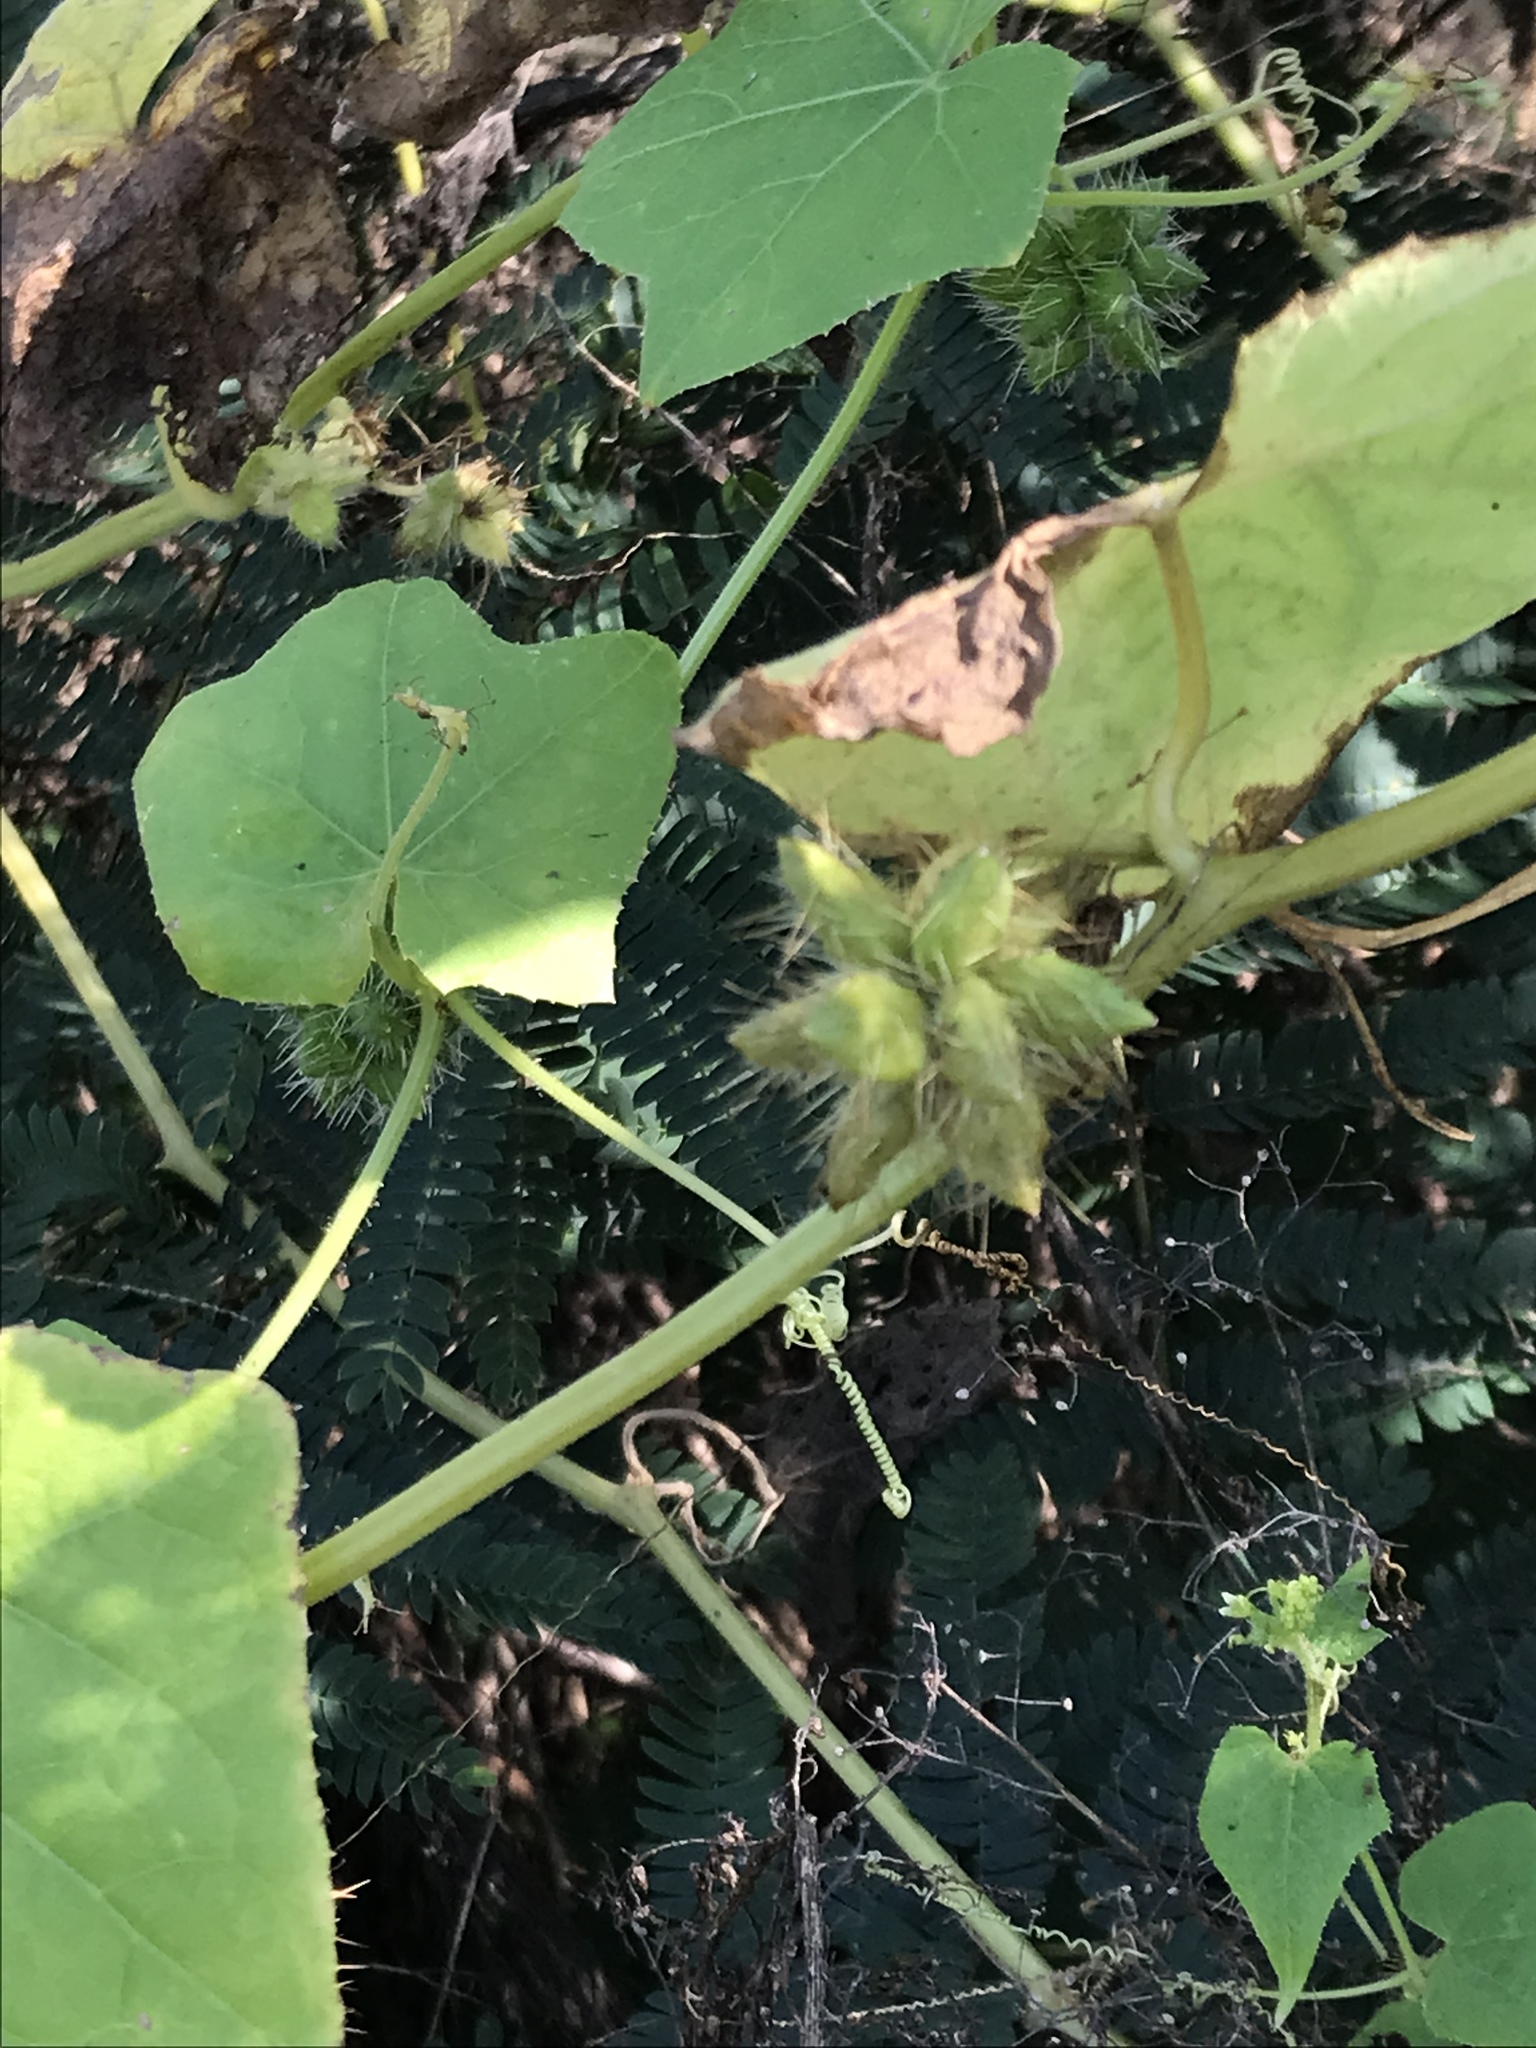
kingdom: Plantae
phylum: Tracheophyta
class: Magnoliopsida
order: Cucurbitales
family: Cucurbitaceae
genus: Sicyos
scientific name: Sicyos angulatus
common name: Angled burr cucumber
